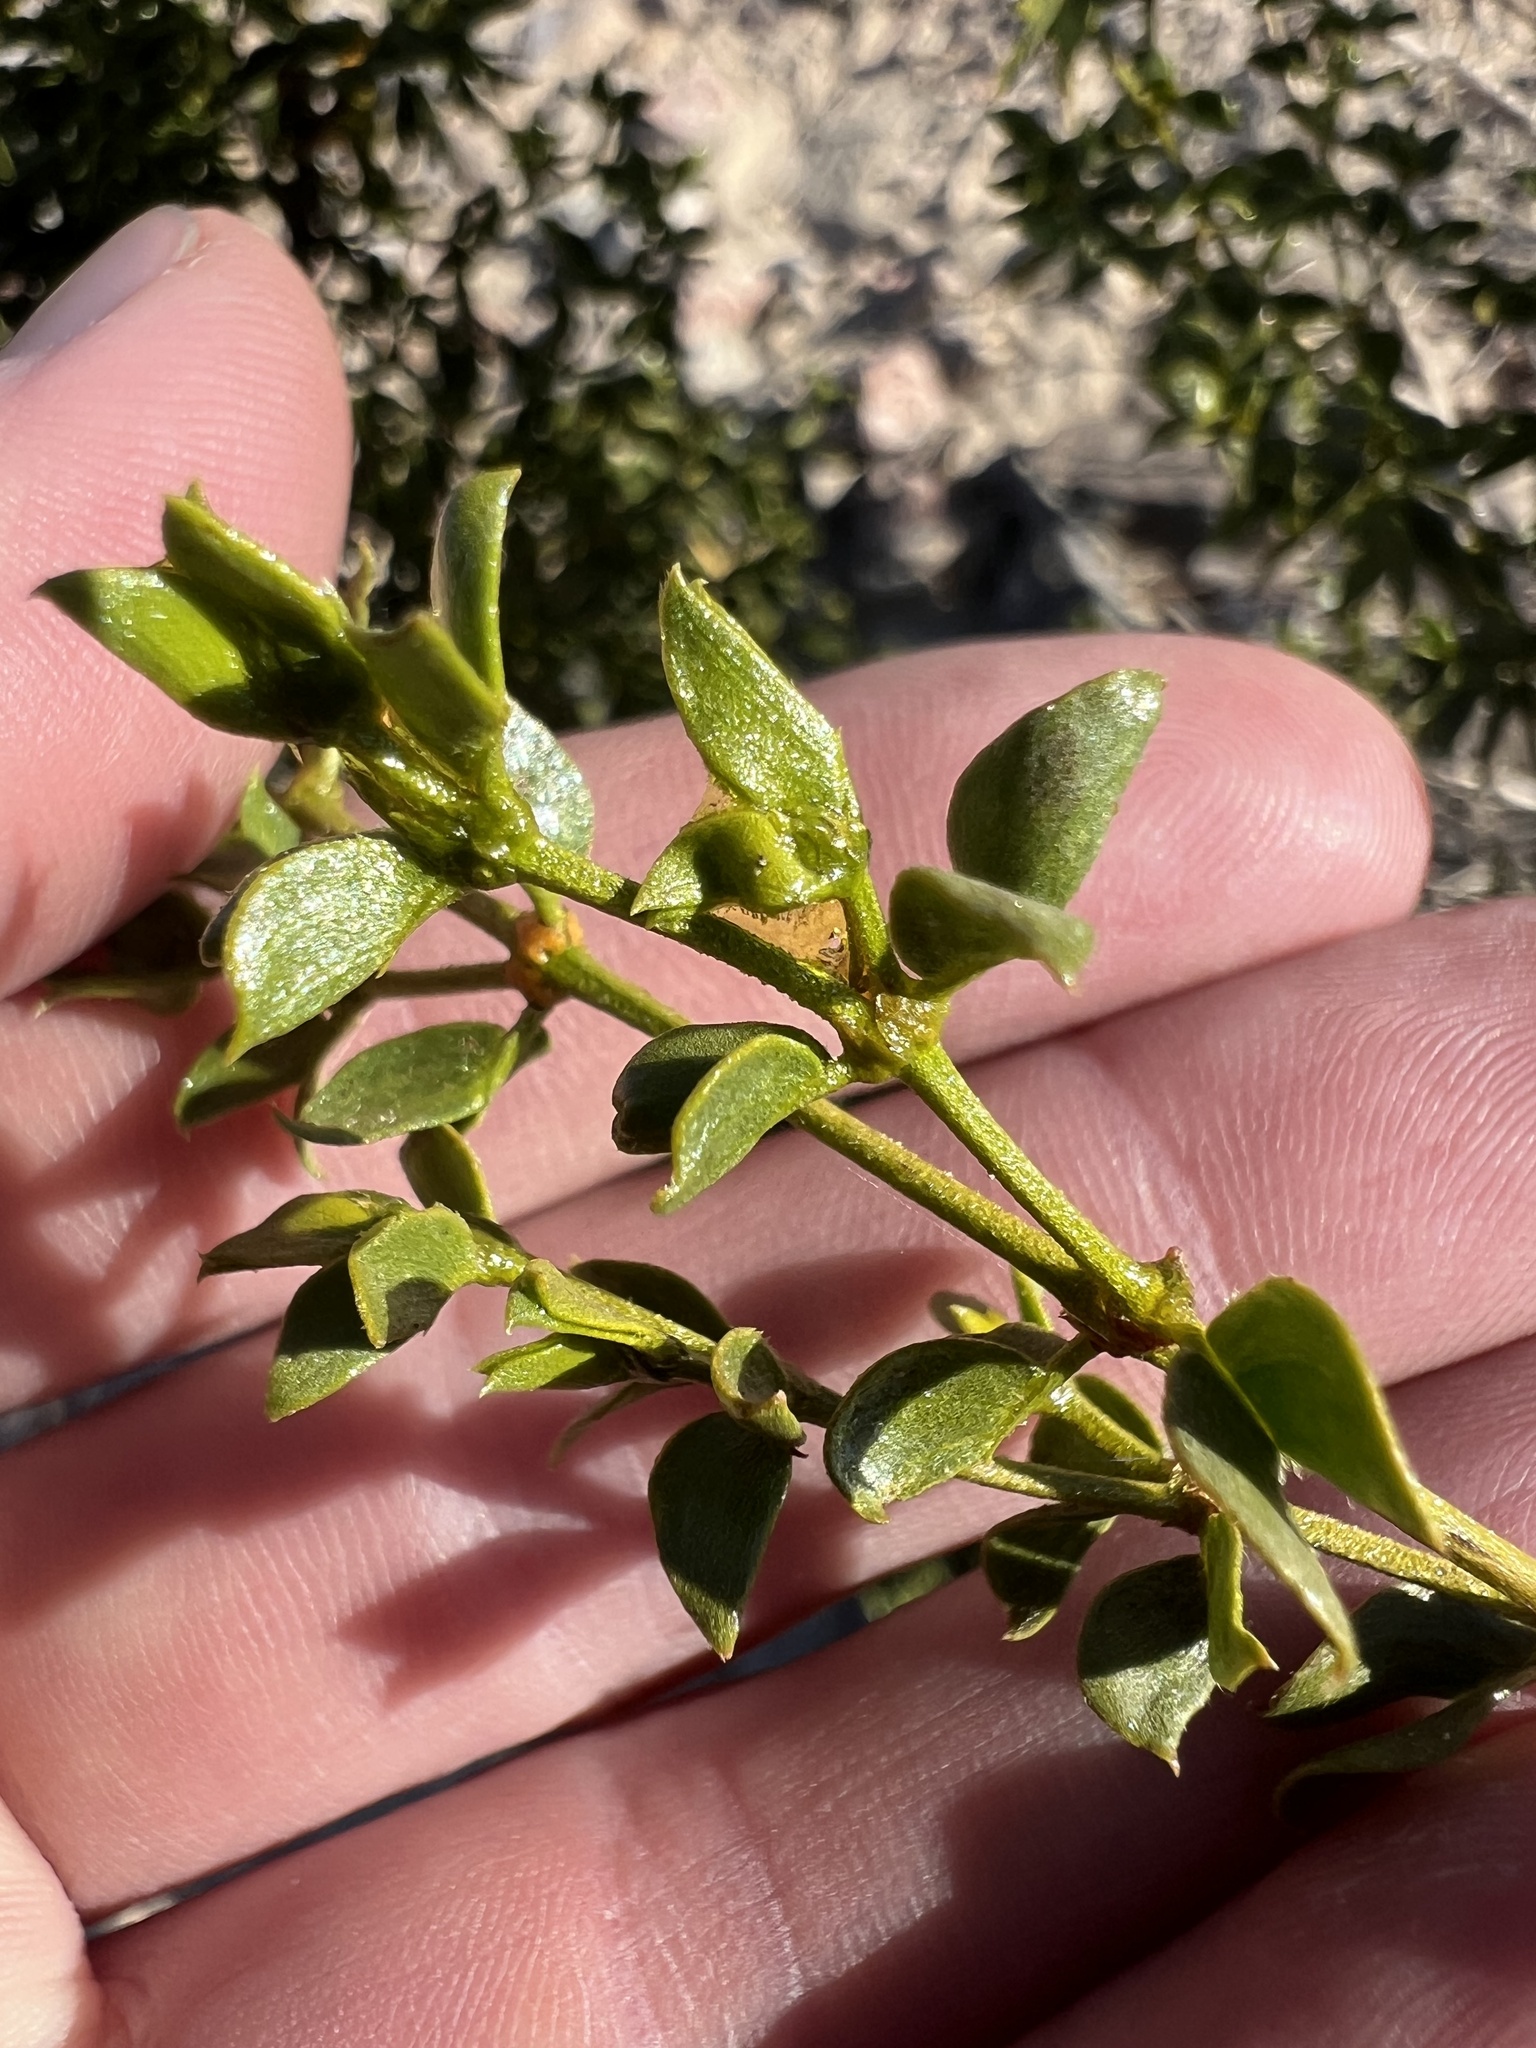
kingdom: Plantae
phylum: Tracheophyta
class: Magnoliopsida
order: Zygophyllales
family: Zygophyllaceae
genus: Larrea
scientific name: Larrea tridentata
